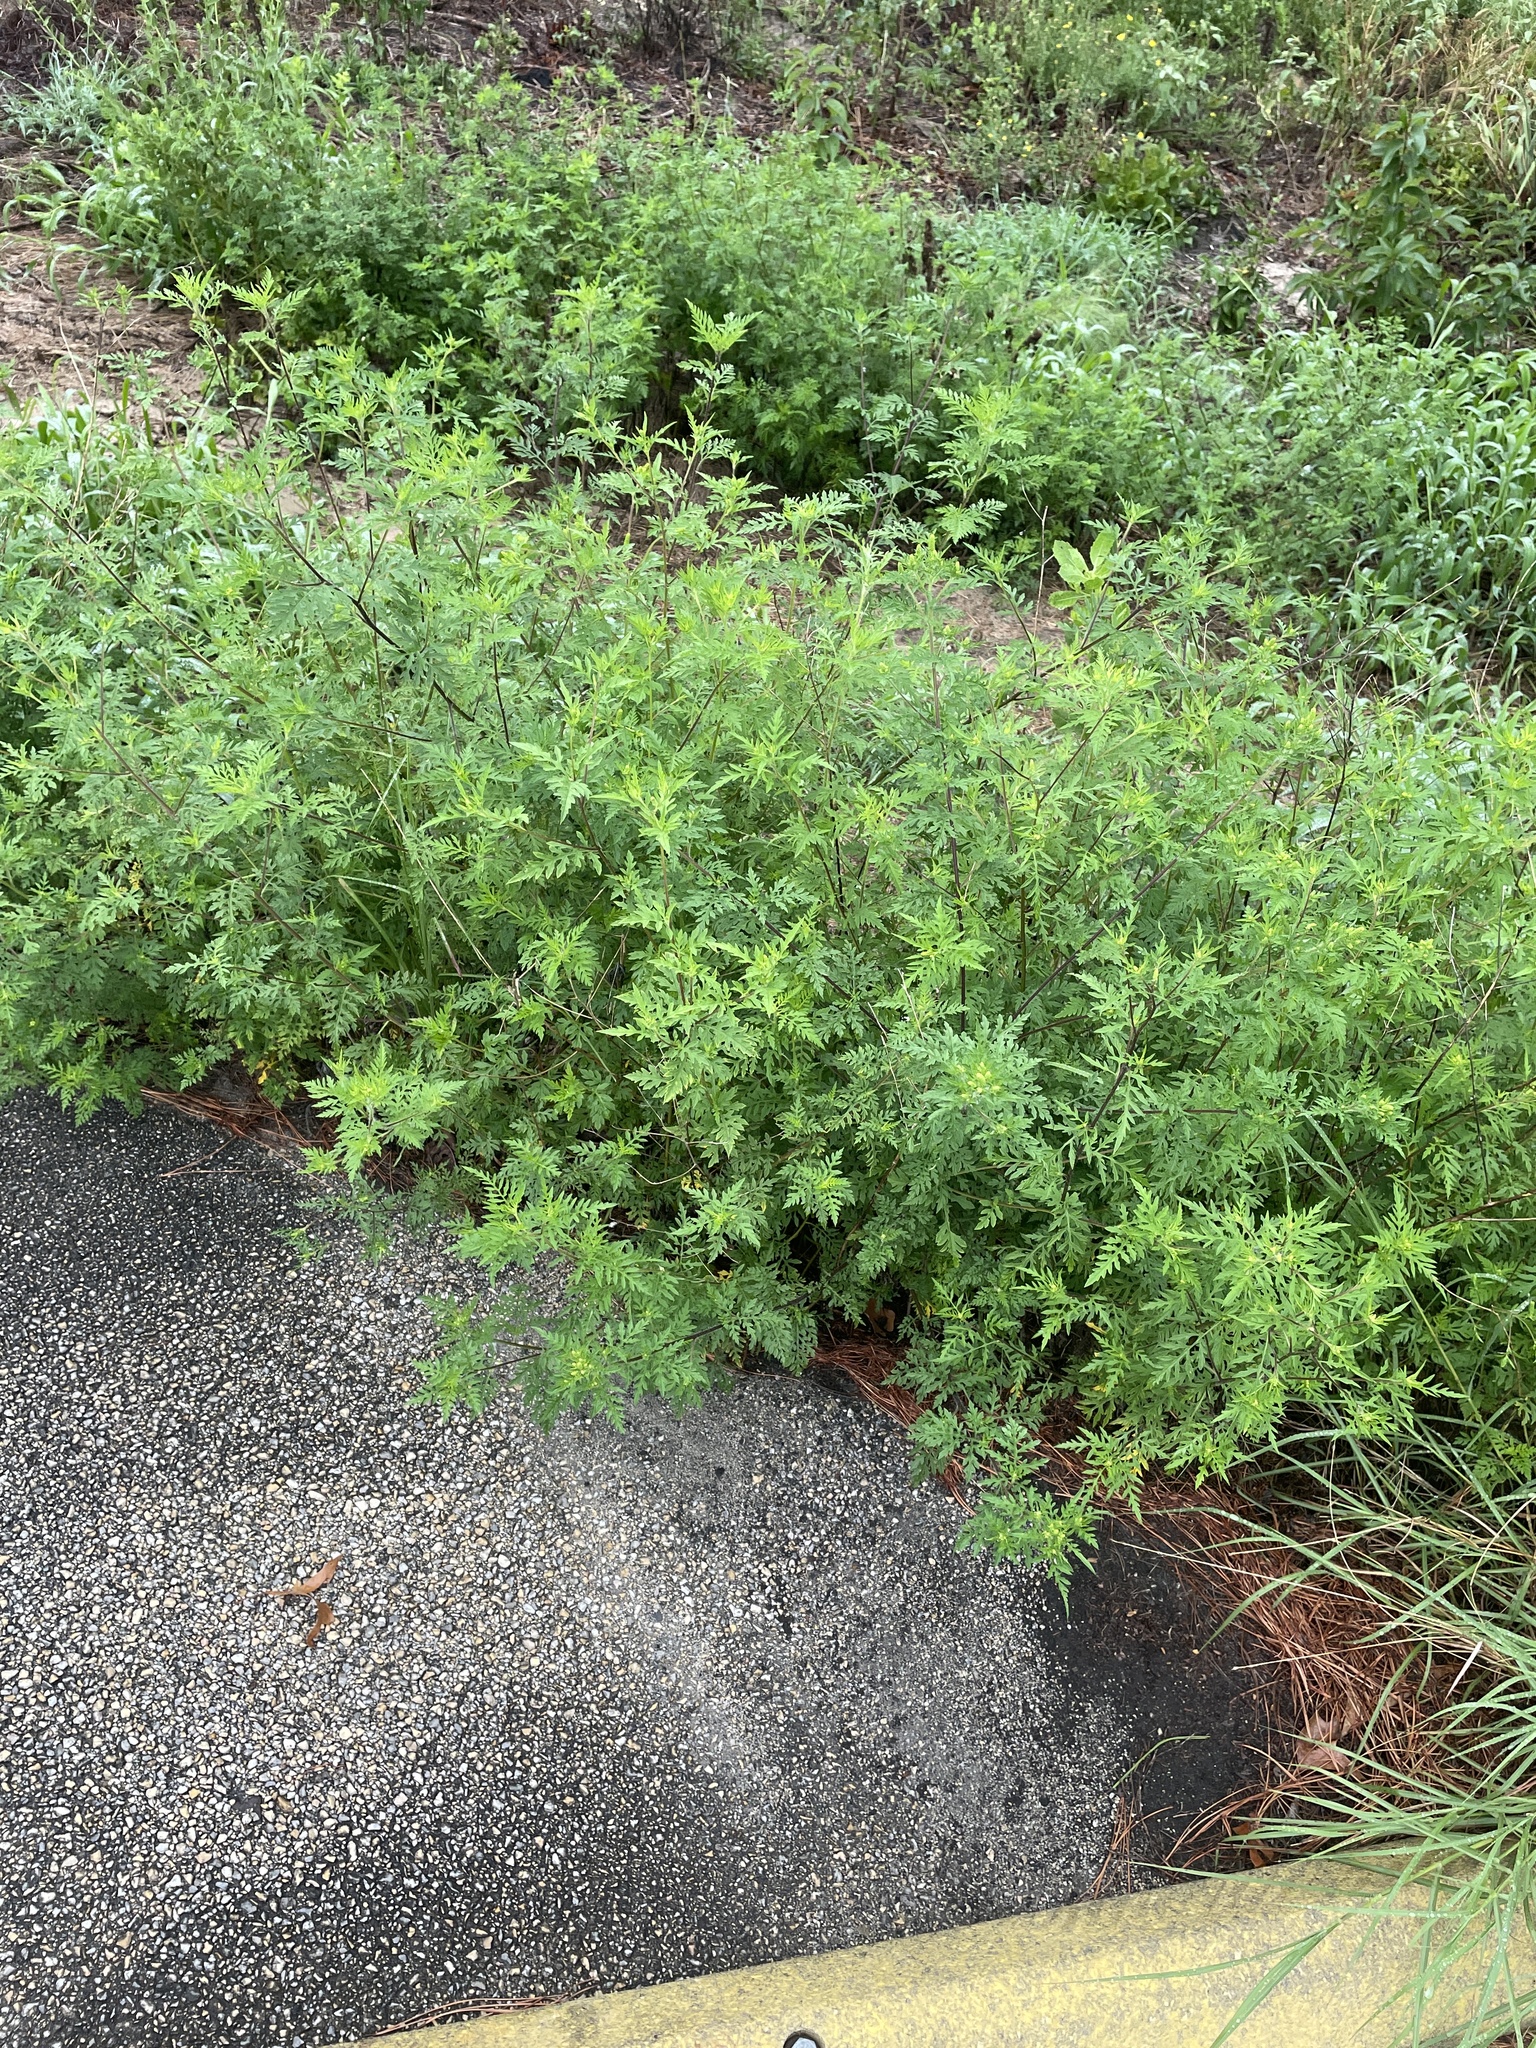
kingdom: Plantae
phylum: Tracheophyta
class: Magnoliopsida
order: Asterales
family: Asteraceae
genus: Ambrosia
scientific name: Ambrosia artemisiifolia
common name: Annual ragweed
